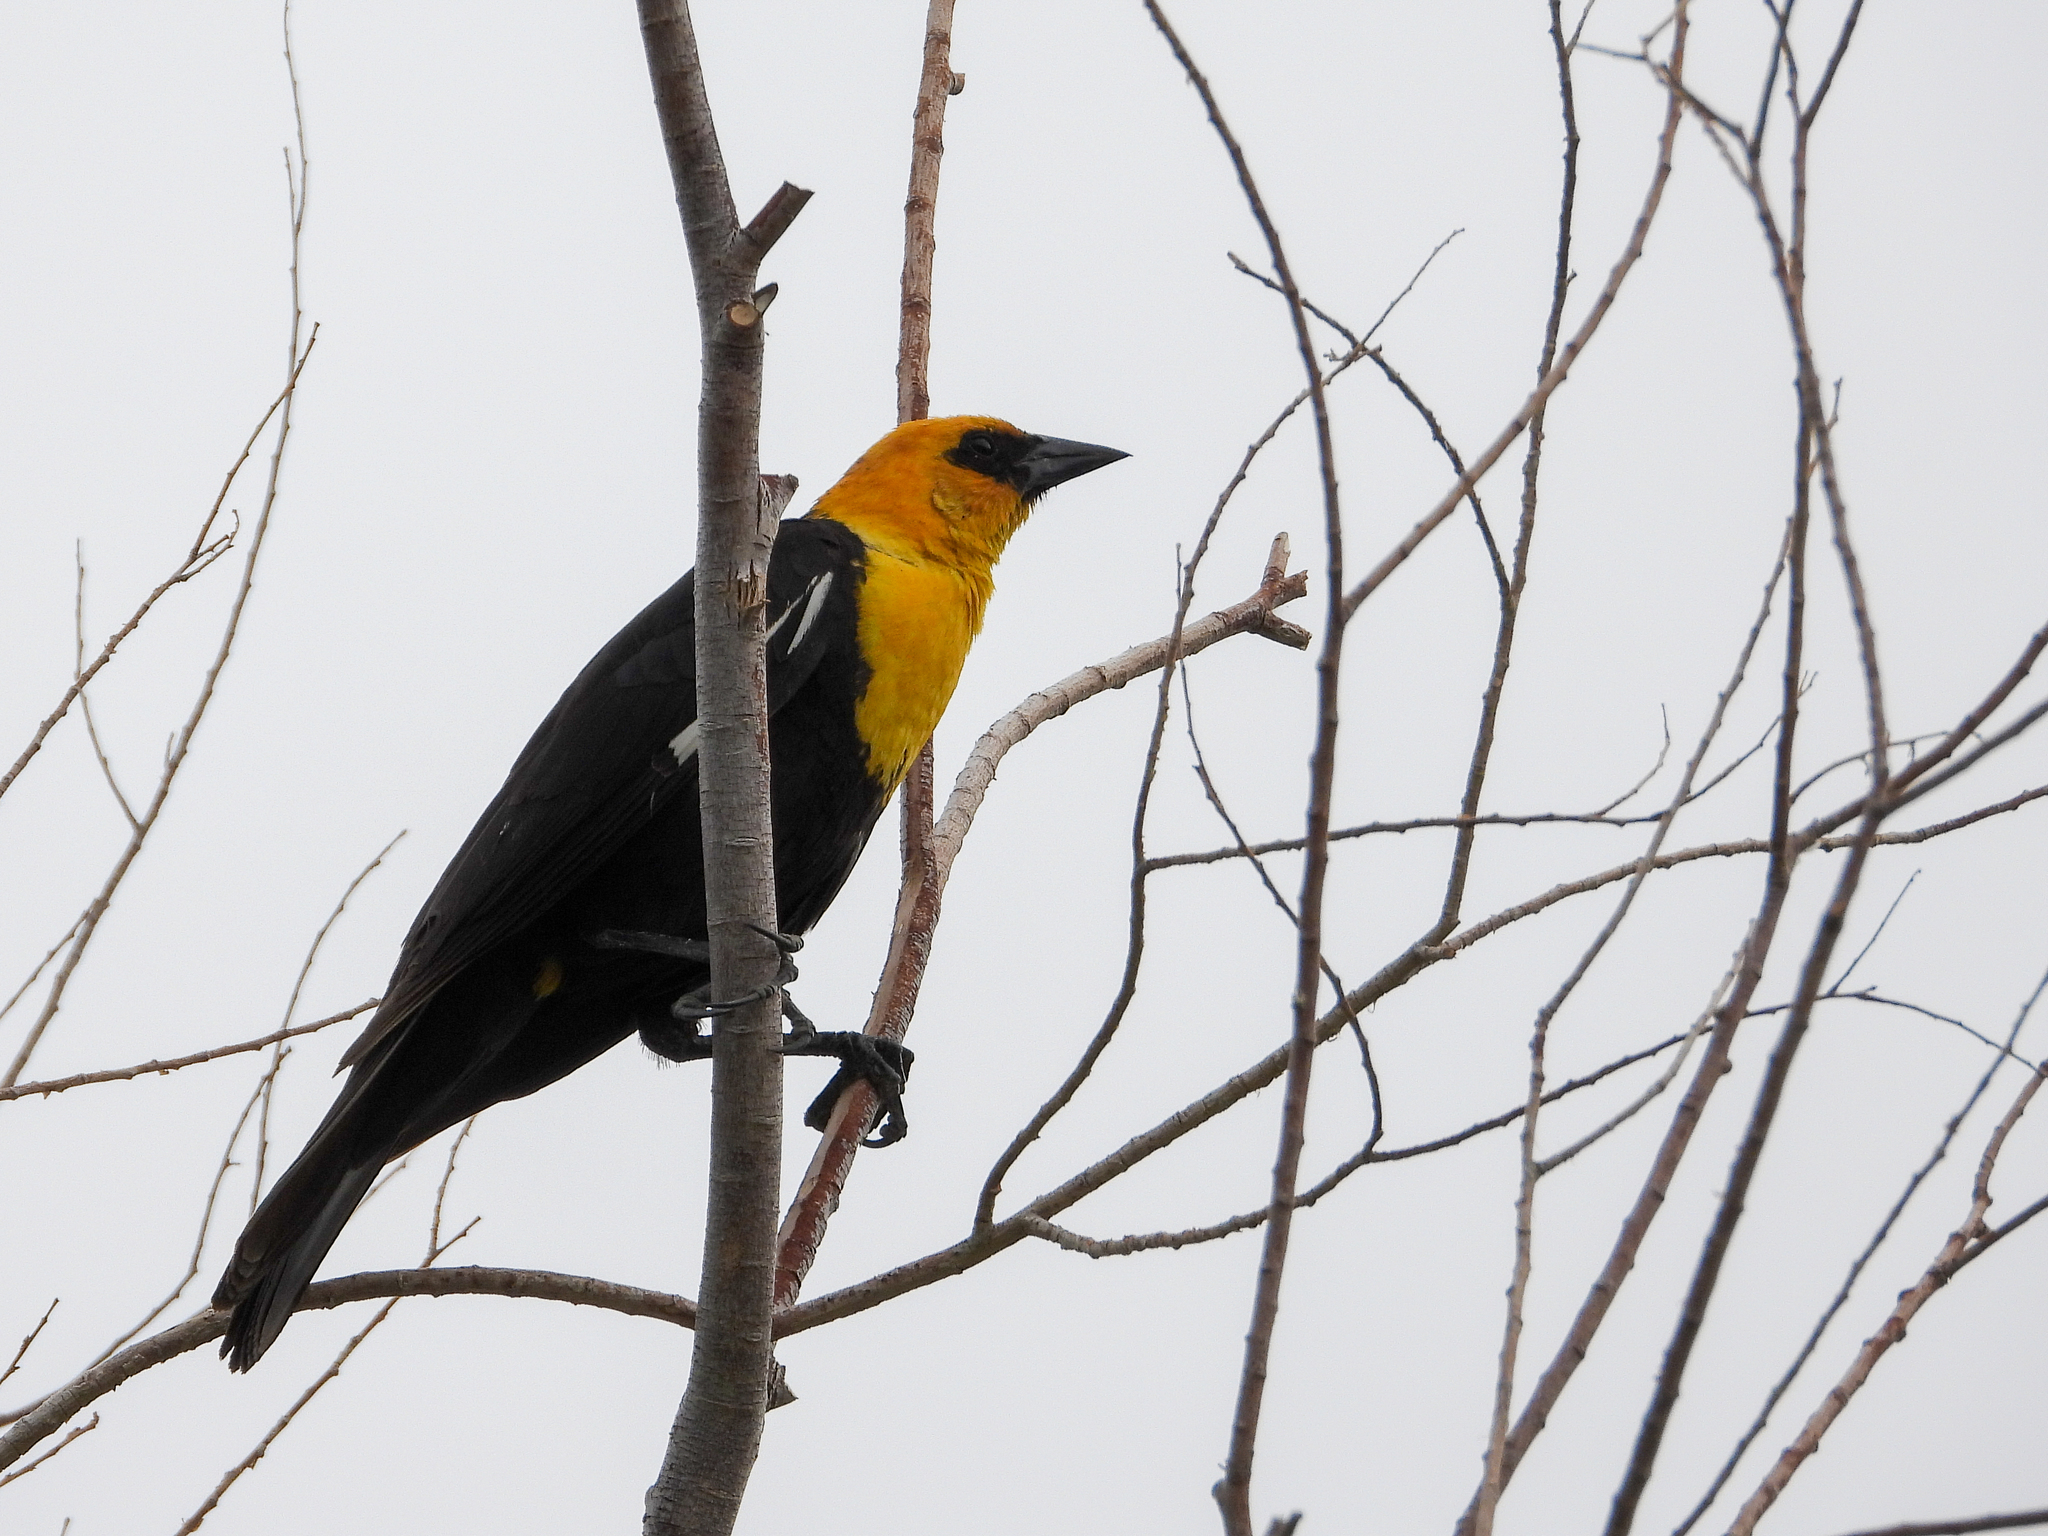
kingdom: Animalia
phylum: Chordata
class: Aves
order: Passeriformes
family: Icteridae
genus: Xanthocephalus
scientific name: Xanthocephalus xanthocephalus
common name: Yellow-headed blackbird
